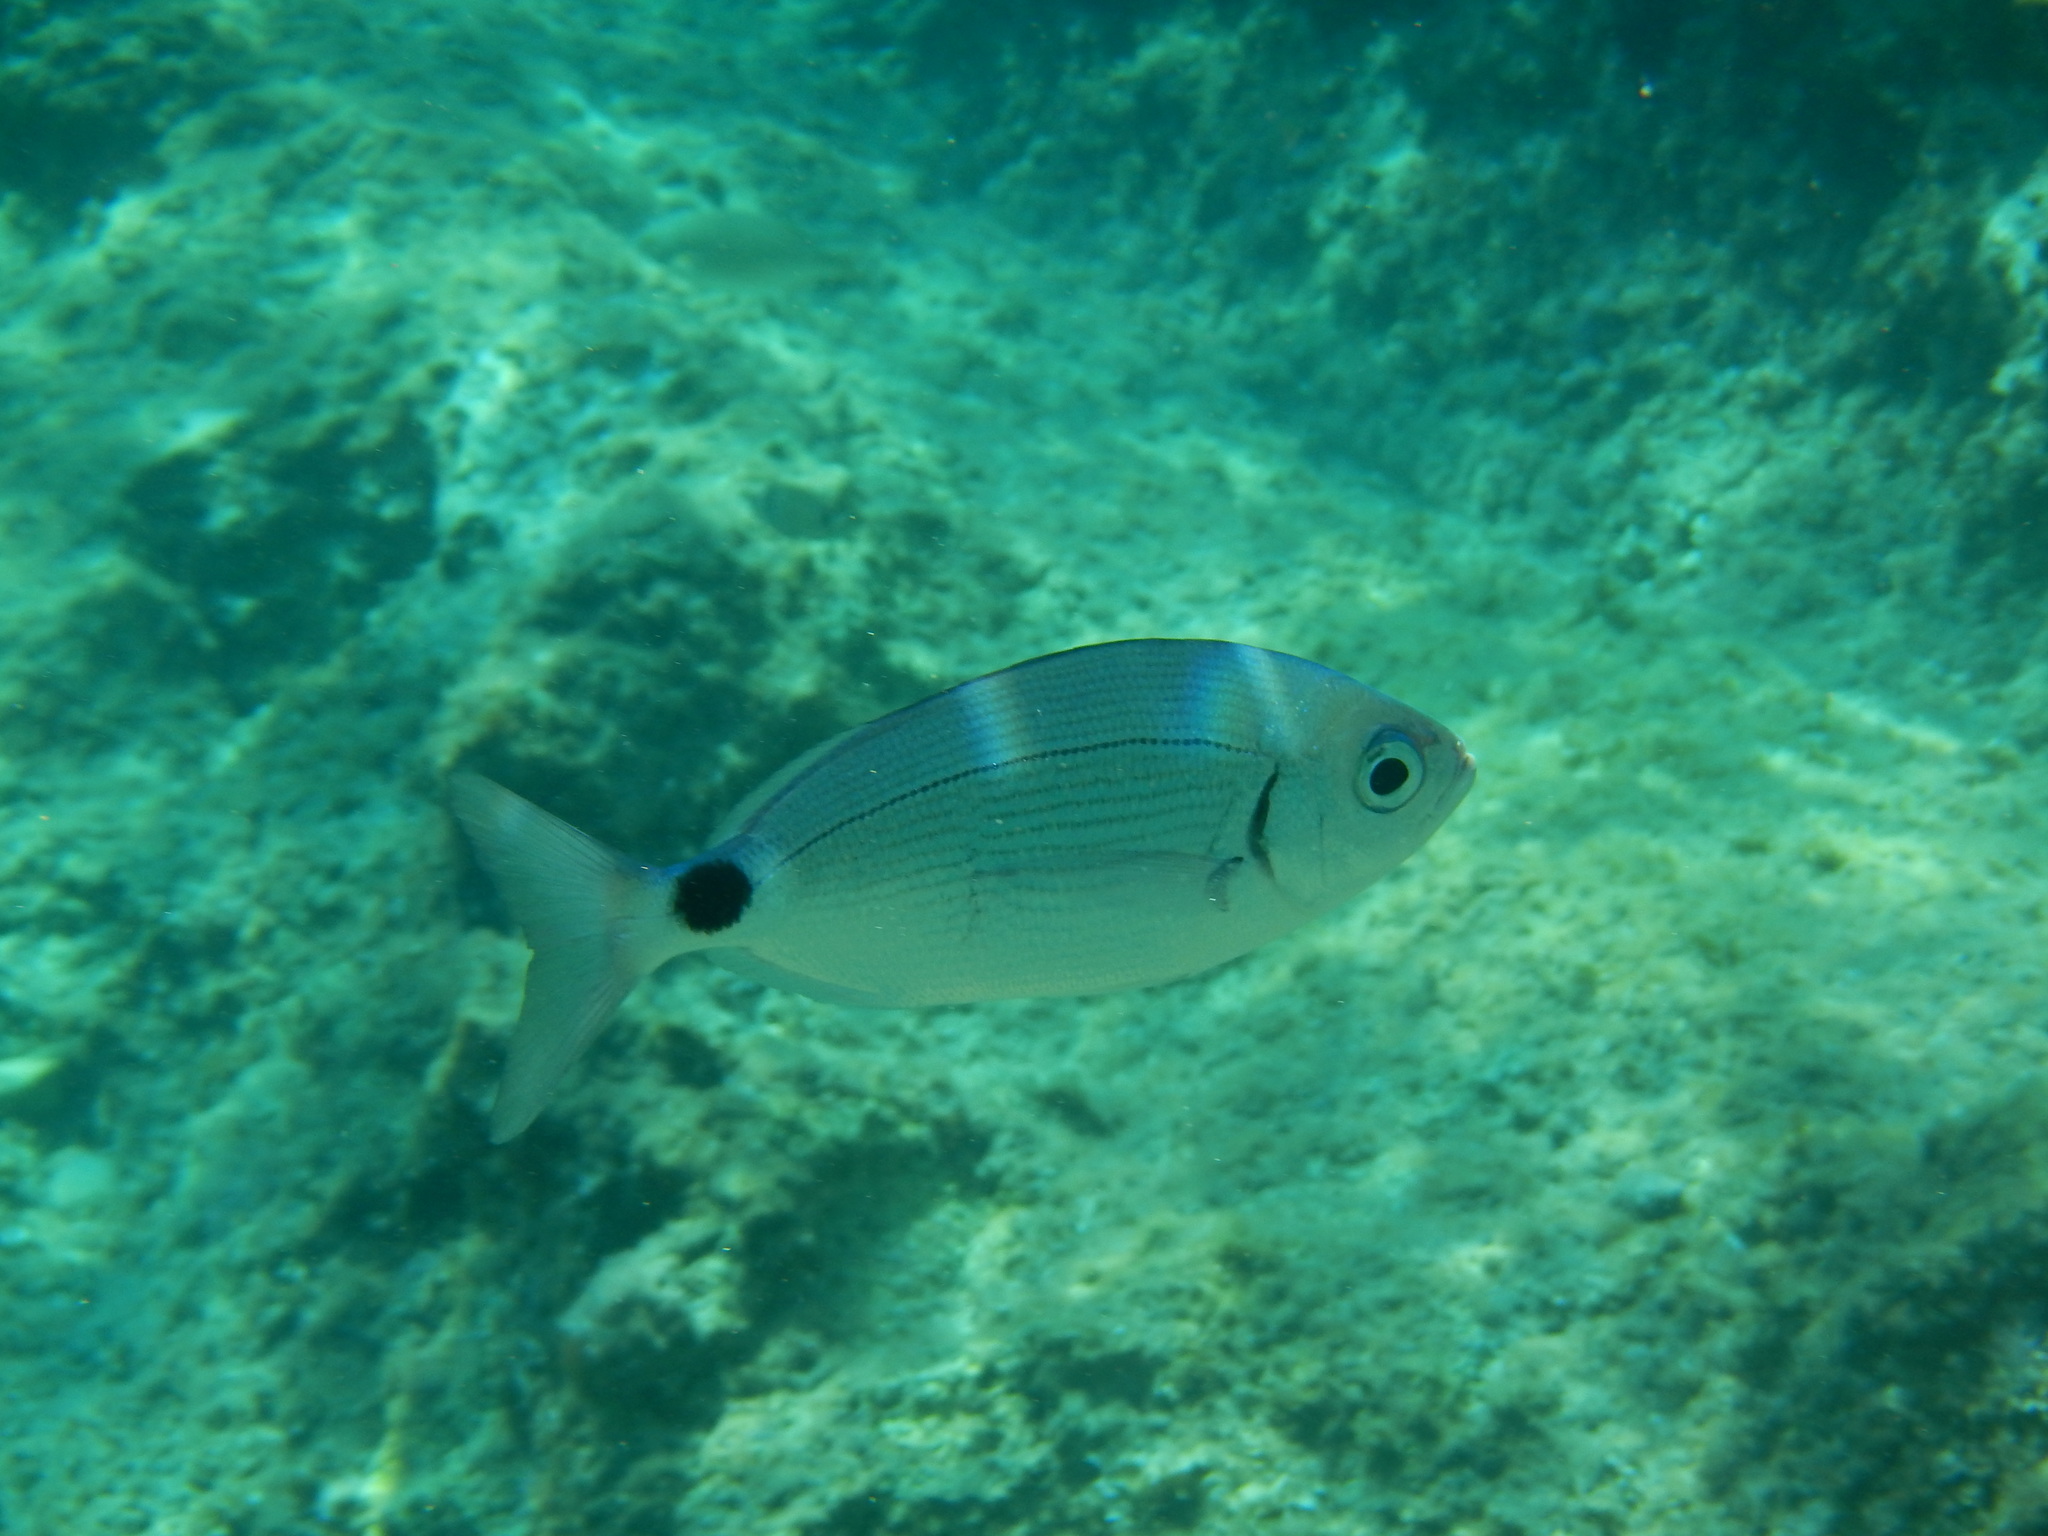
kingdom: Animalia
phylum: Chordata
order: Perciformes
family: Sparidae
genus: Oblada
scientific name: Oblada melanura
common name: Saddled seabream
